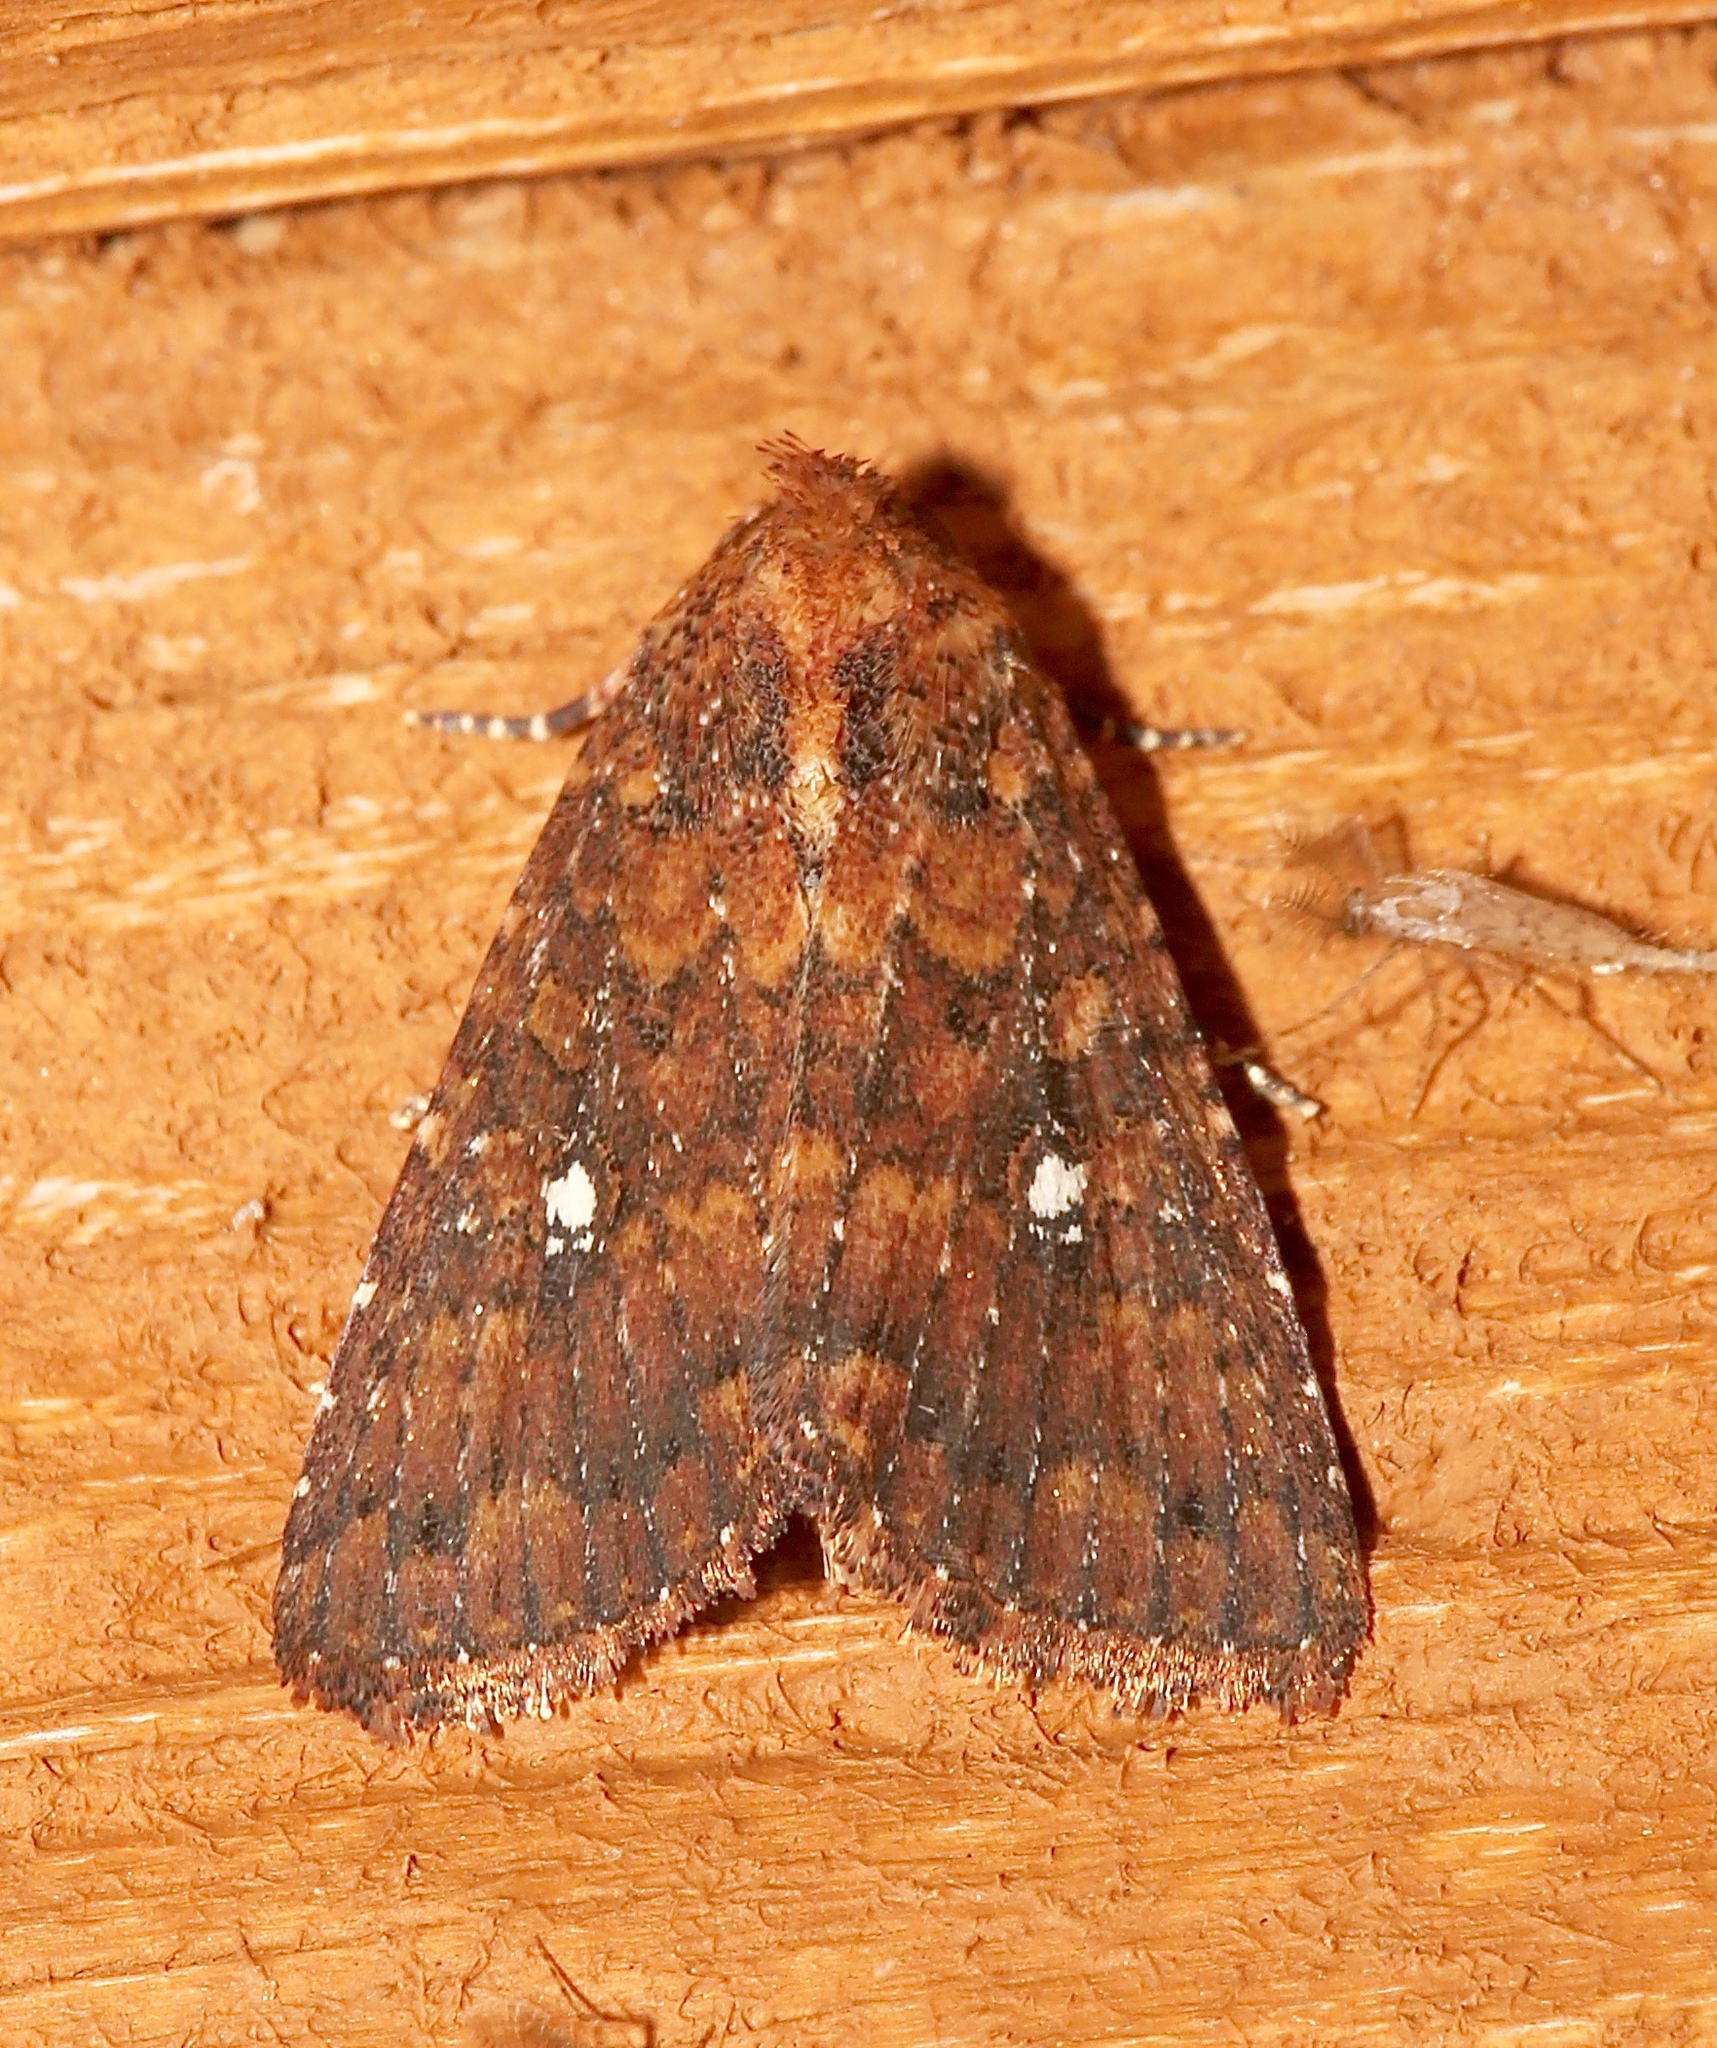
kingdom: Animalia
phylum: Arthropoda
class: Insecta
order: Lepidoptera
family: Noctuidae
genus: Condica
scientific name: Condica mobilis
